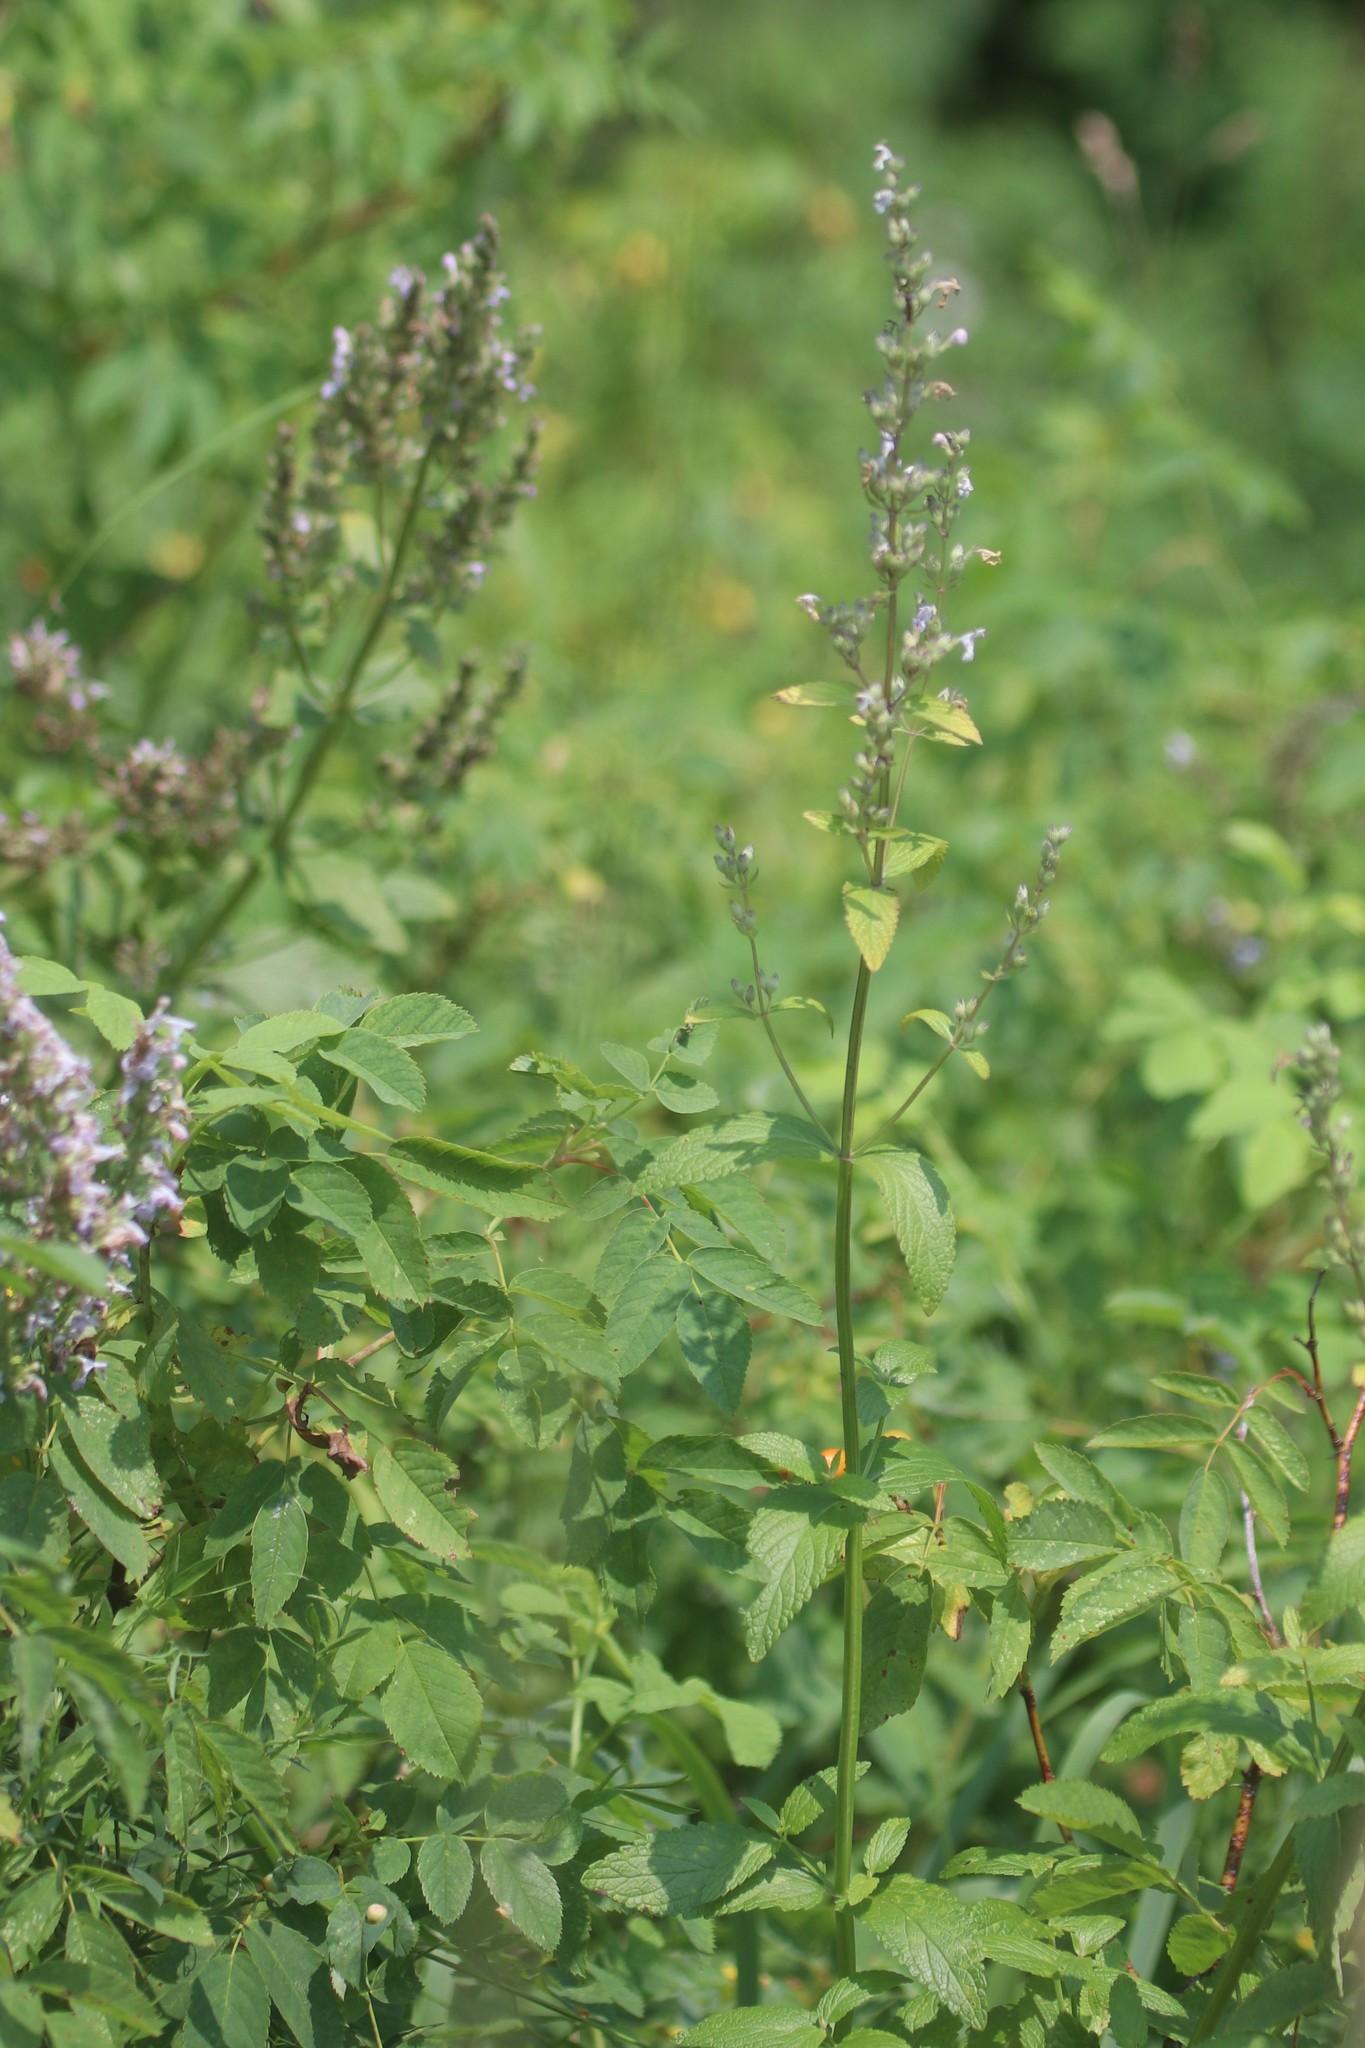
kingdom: Plantae
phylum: Tracheophyta
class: Magnoliopsida
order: Lamiales
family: Lamiaceae
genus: Nepeta
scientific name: Nepeta nuda
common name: Hairless catmint
